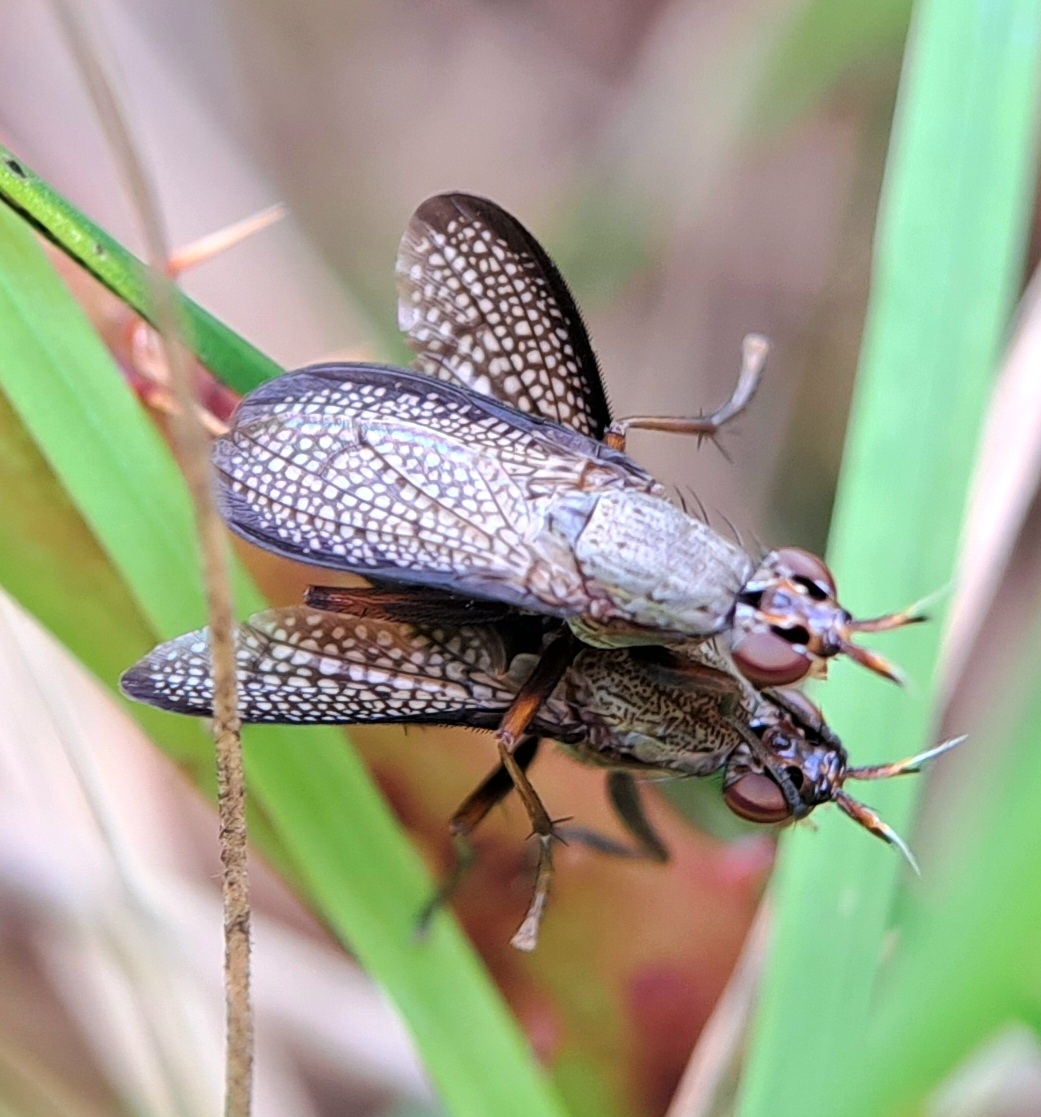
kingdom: Animalia
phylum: Arthropoda
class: Insecta
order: Diptera
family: Sciomyzidae
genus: Coremacera
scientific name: Coremacera marginata
